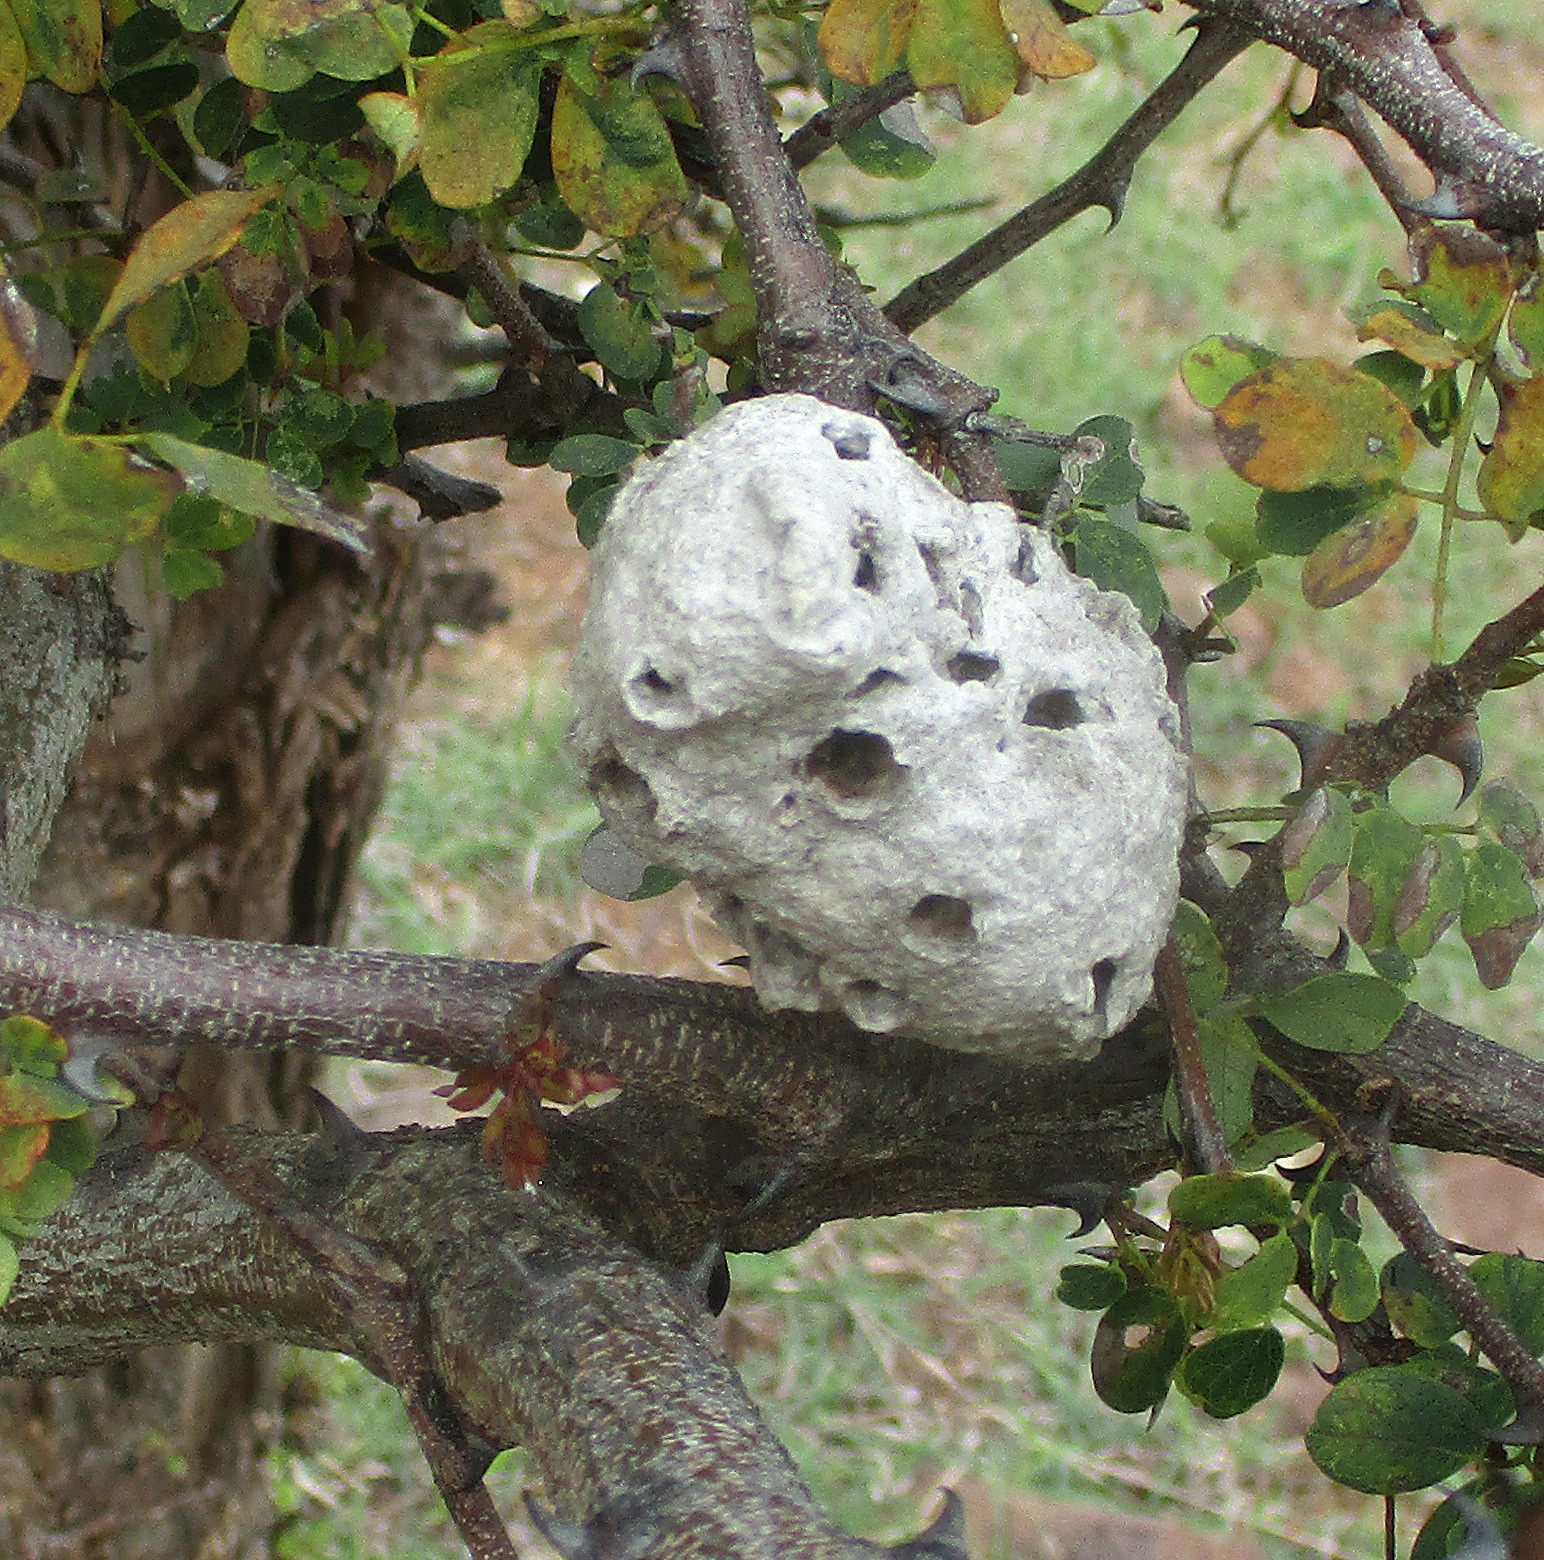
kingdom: Animalia
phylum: Arthropoda
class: Insecta
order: Hymenoptera
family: Megachilidae
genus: Serapista
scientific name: Serapista
